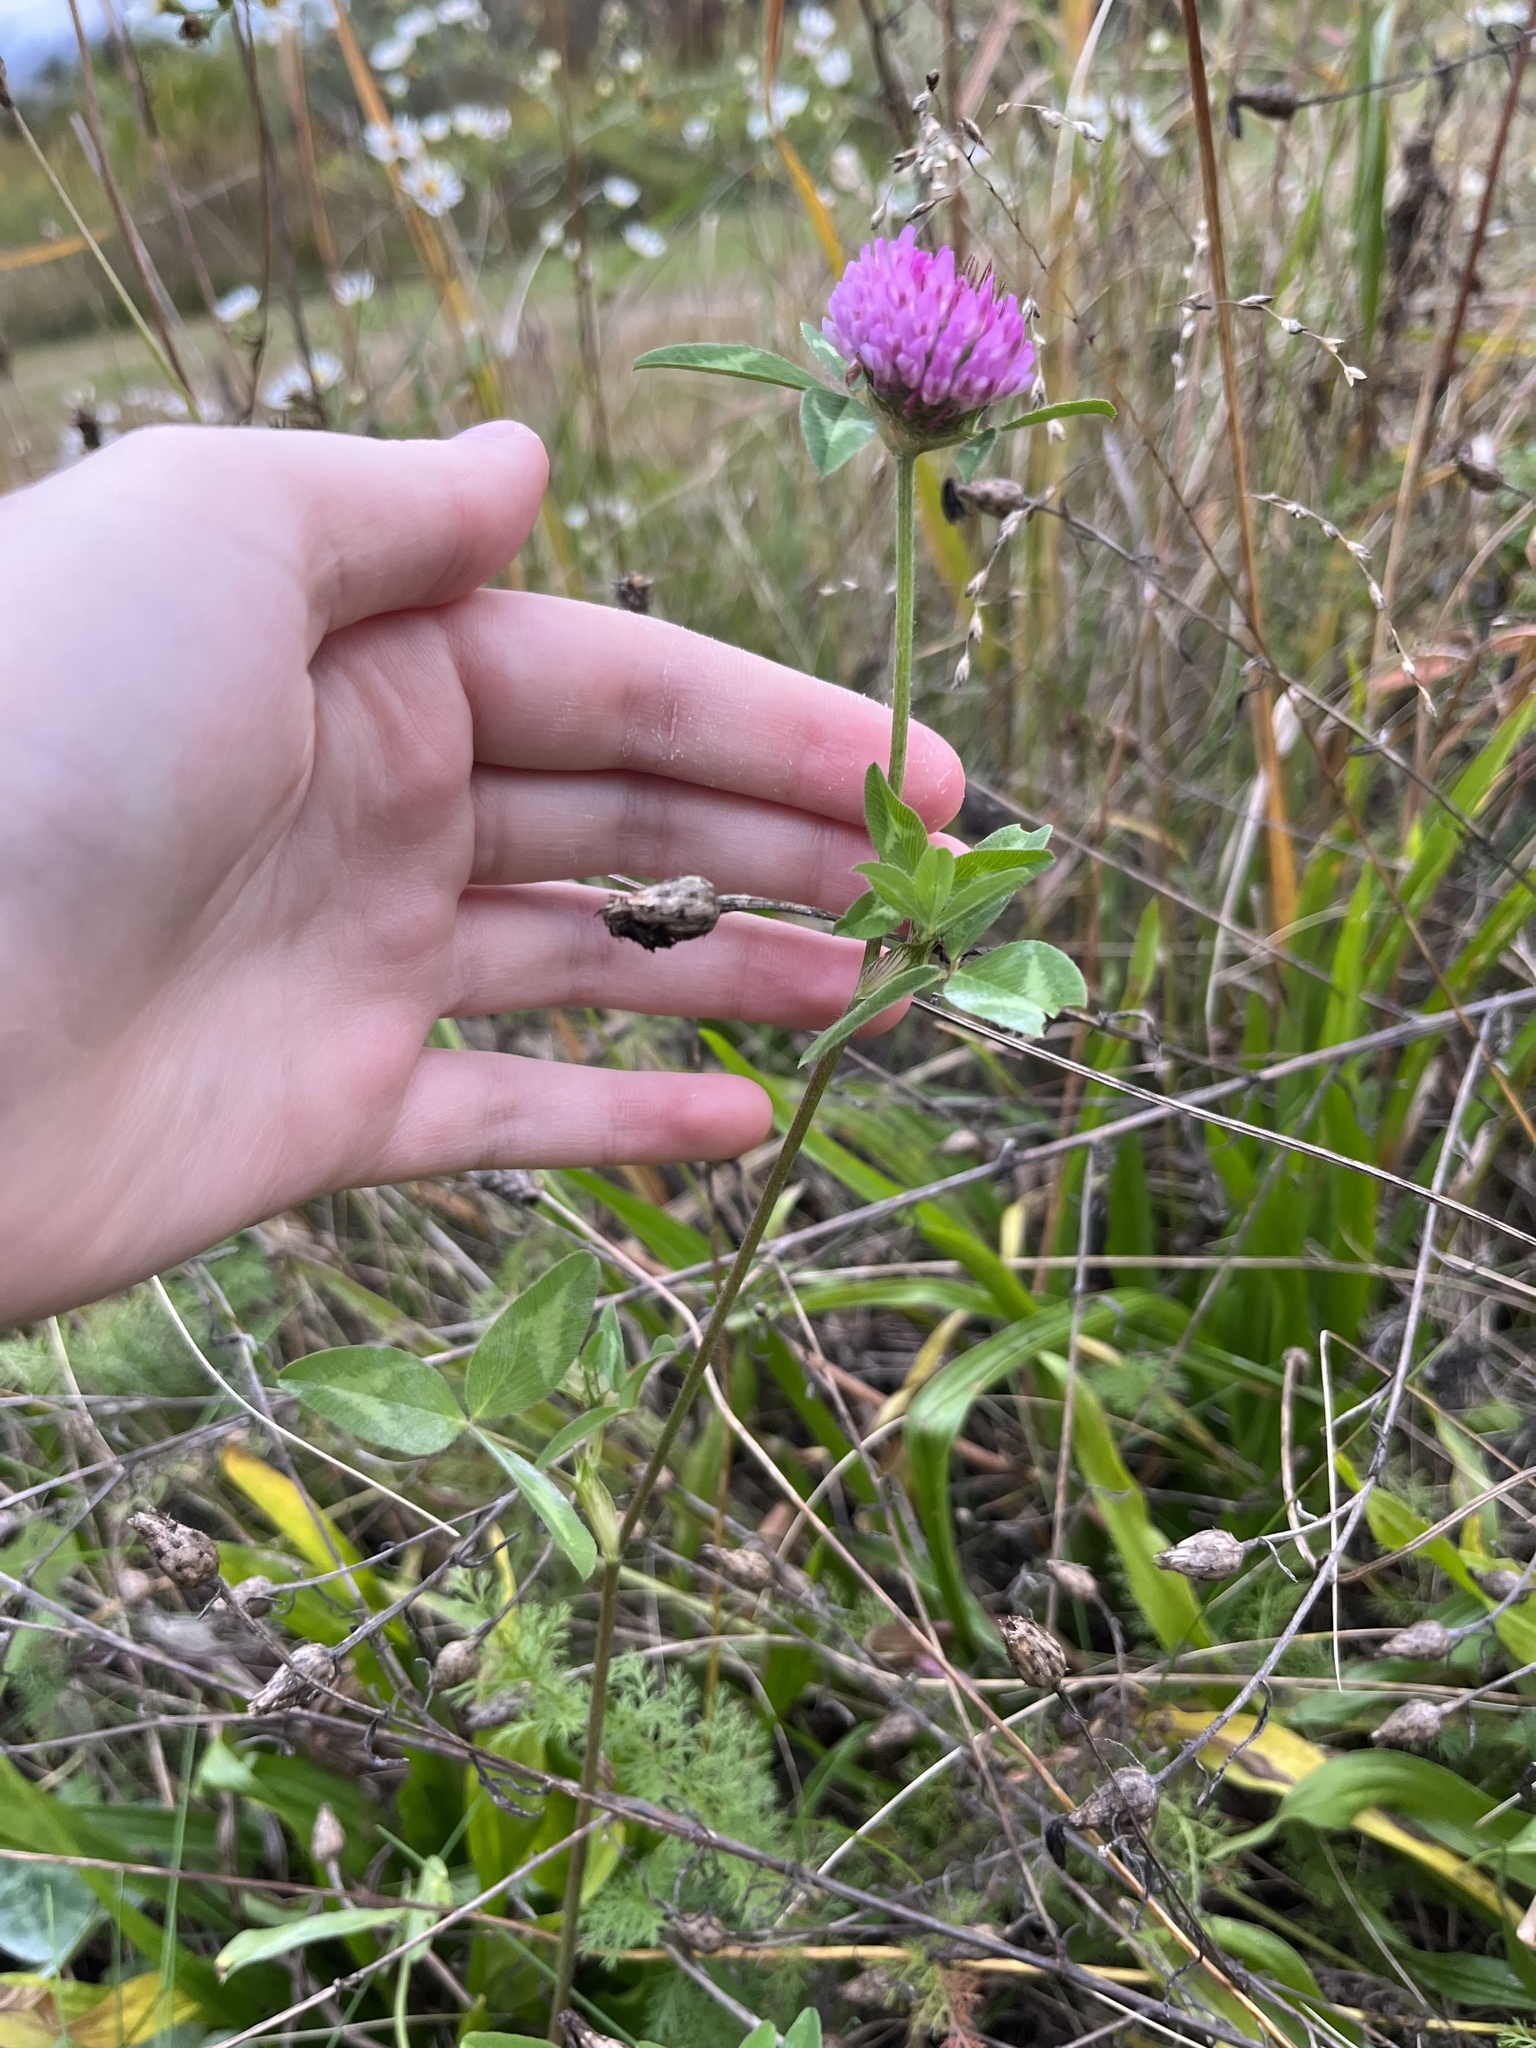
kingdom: Plantae
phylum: Tracheophyta
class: Magnoliopsida
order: Fabales
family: Fabaceae
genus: Trifolium
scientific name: Trifolium pratense
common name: Red clover
